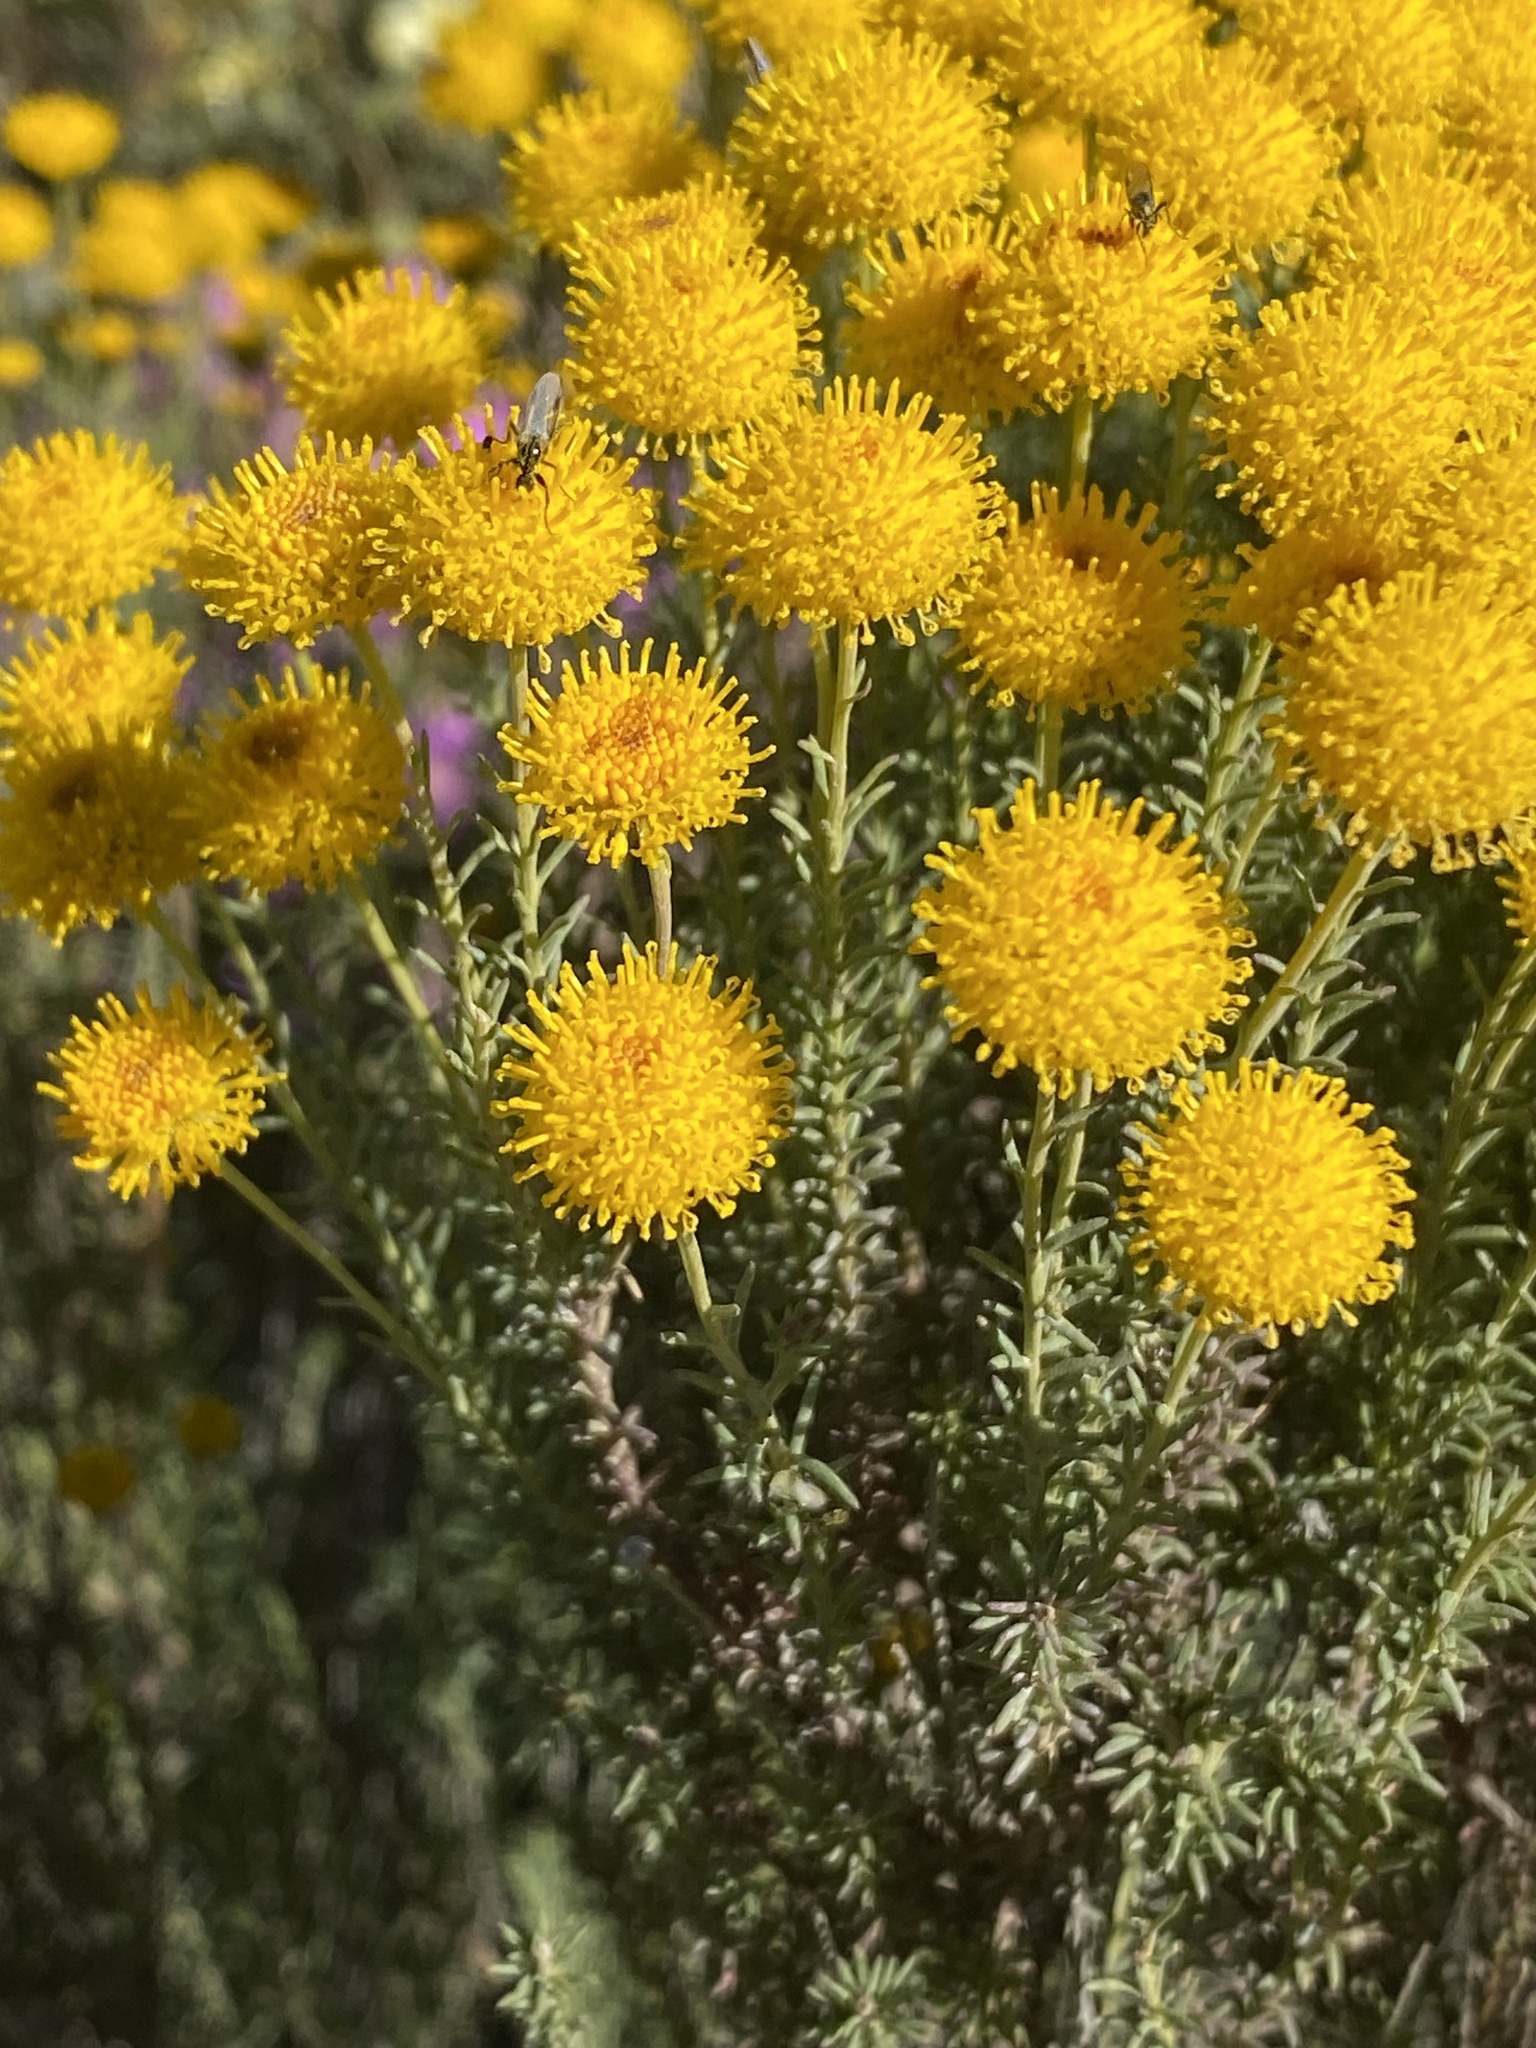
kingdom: Plantae
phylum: Tracheophyta
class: Magnoliopsida
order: Asterales
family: Asteraceae
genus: Chrysocoma
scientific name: Chrysocoma ciliata
